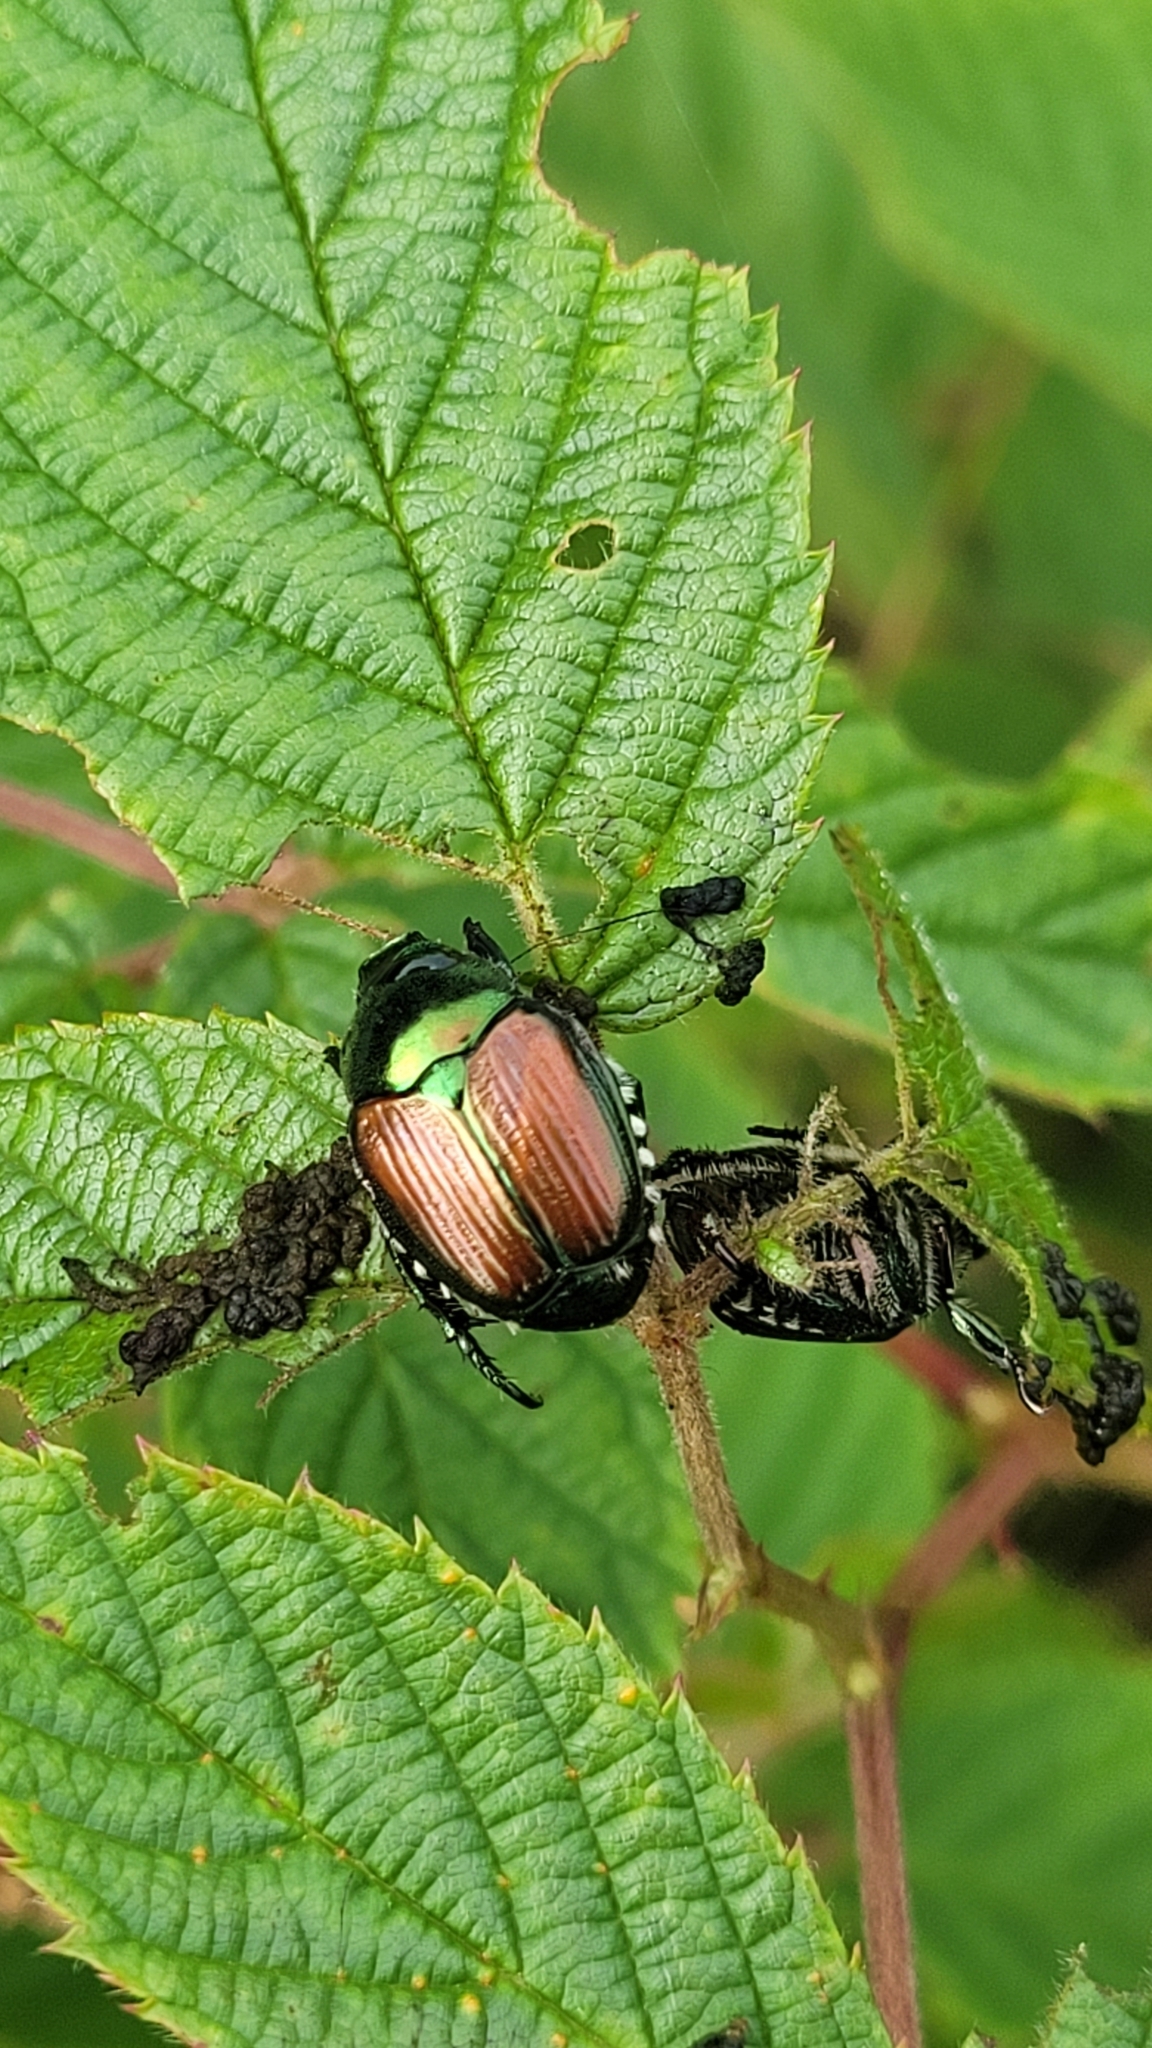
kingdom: Animalia
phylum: Arthropoda
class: Insecta
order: Coleoptera
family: Scarabaeidae
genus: Popillia
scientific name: Popillia japonica
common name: Japanese beetle
